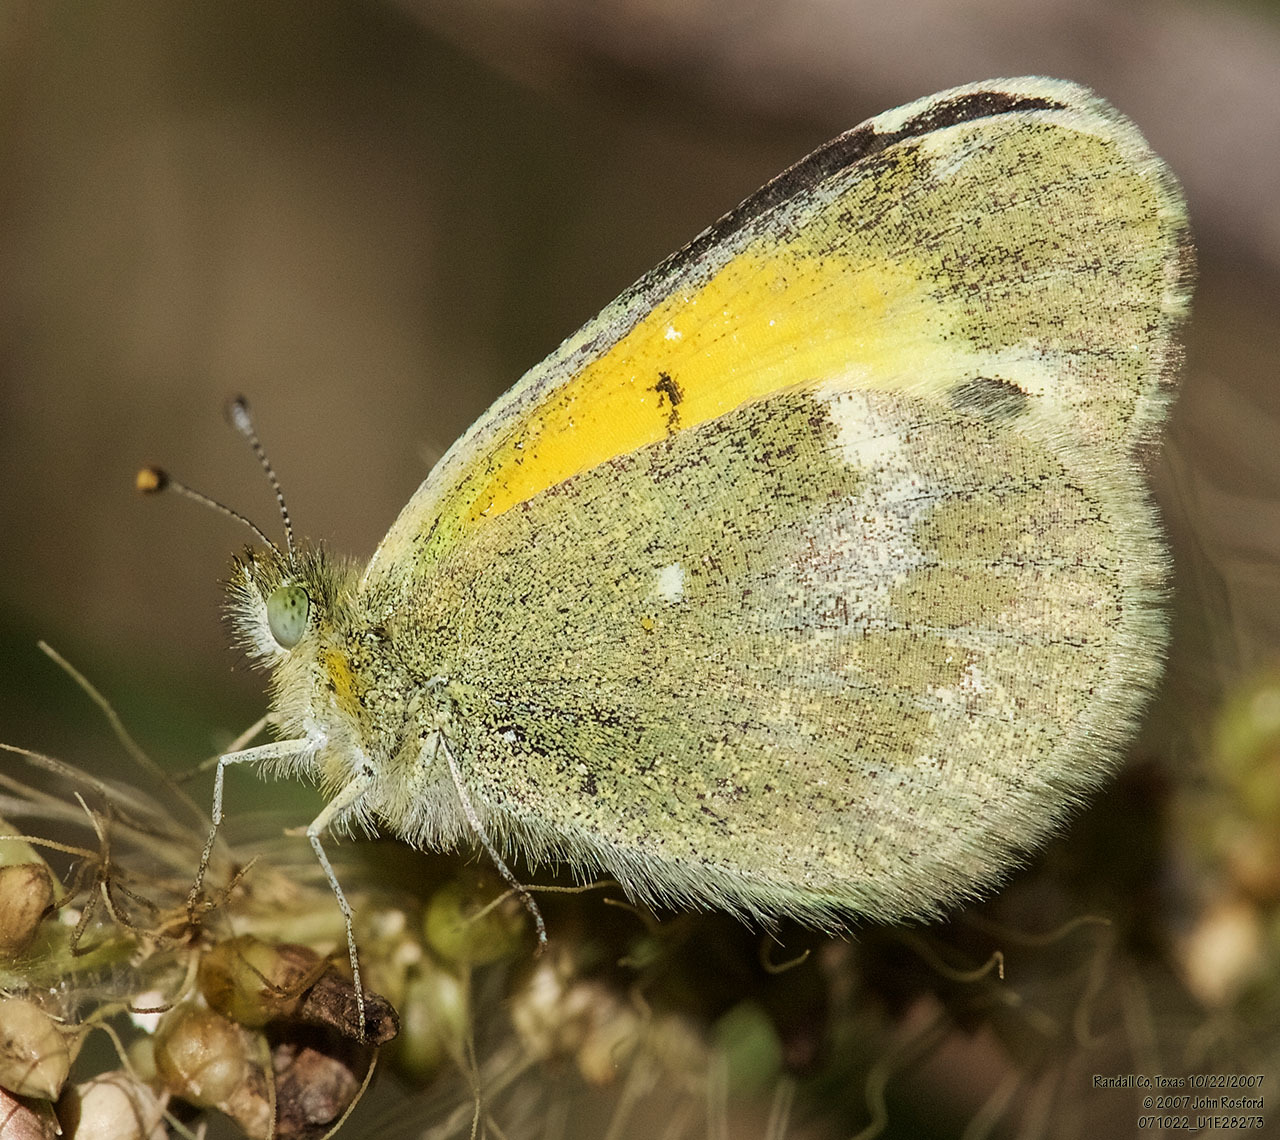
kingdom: Animalia
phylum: Arthropoda
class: Insecta
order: Lepidoptera
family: Pieridae
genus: Nathalis
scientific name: Nathalis iole
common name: Dainty sulphur
